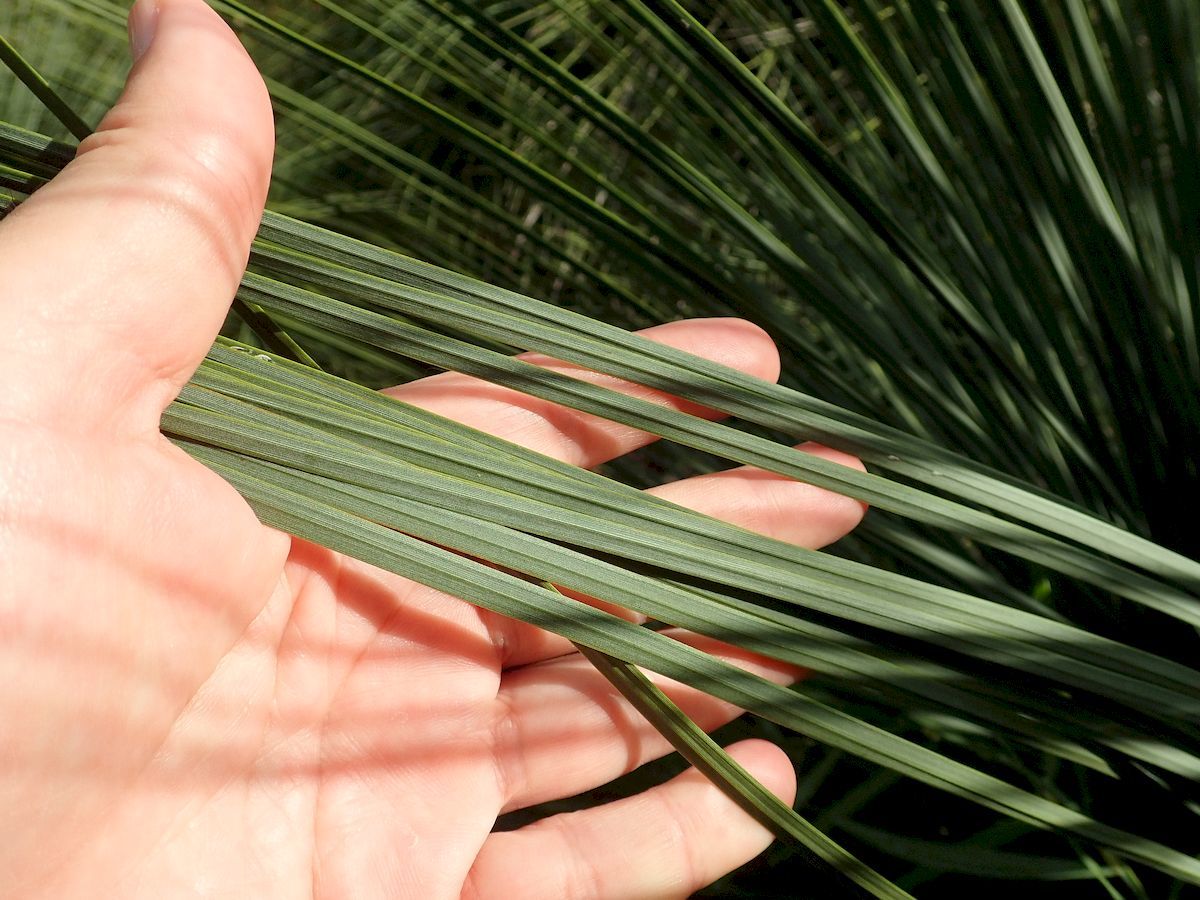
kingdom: Plantae
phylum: Tracheophyta
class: Liliopsida
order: Asparagales
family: Asphodelaceae
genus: Xanthorrhoea
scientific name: Xanthorrhoea resinosa
